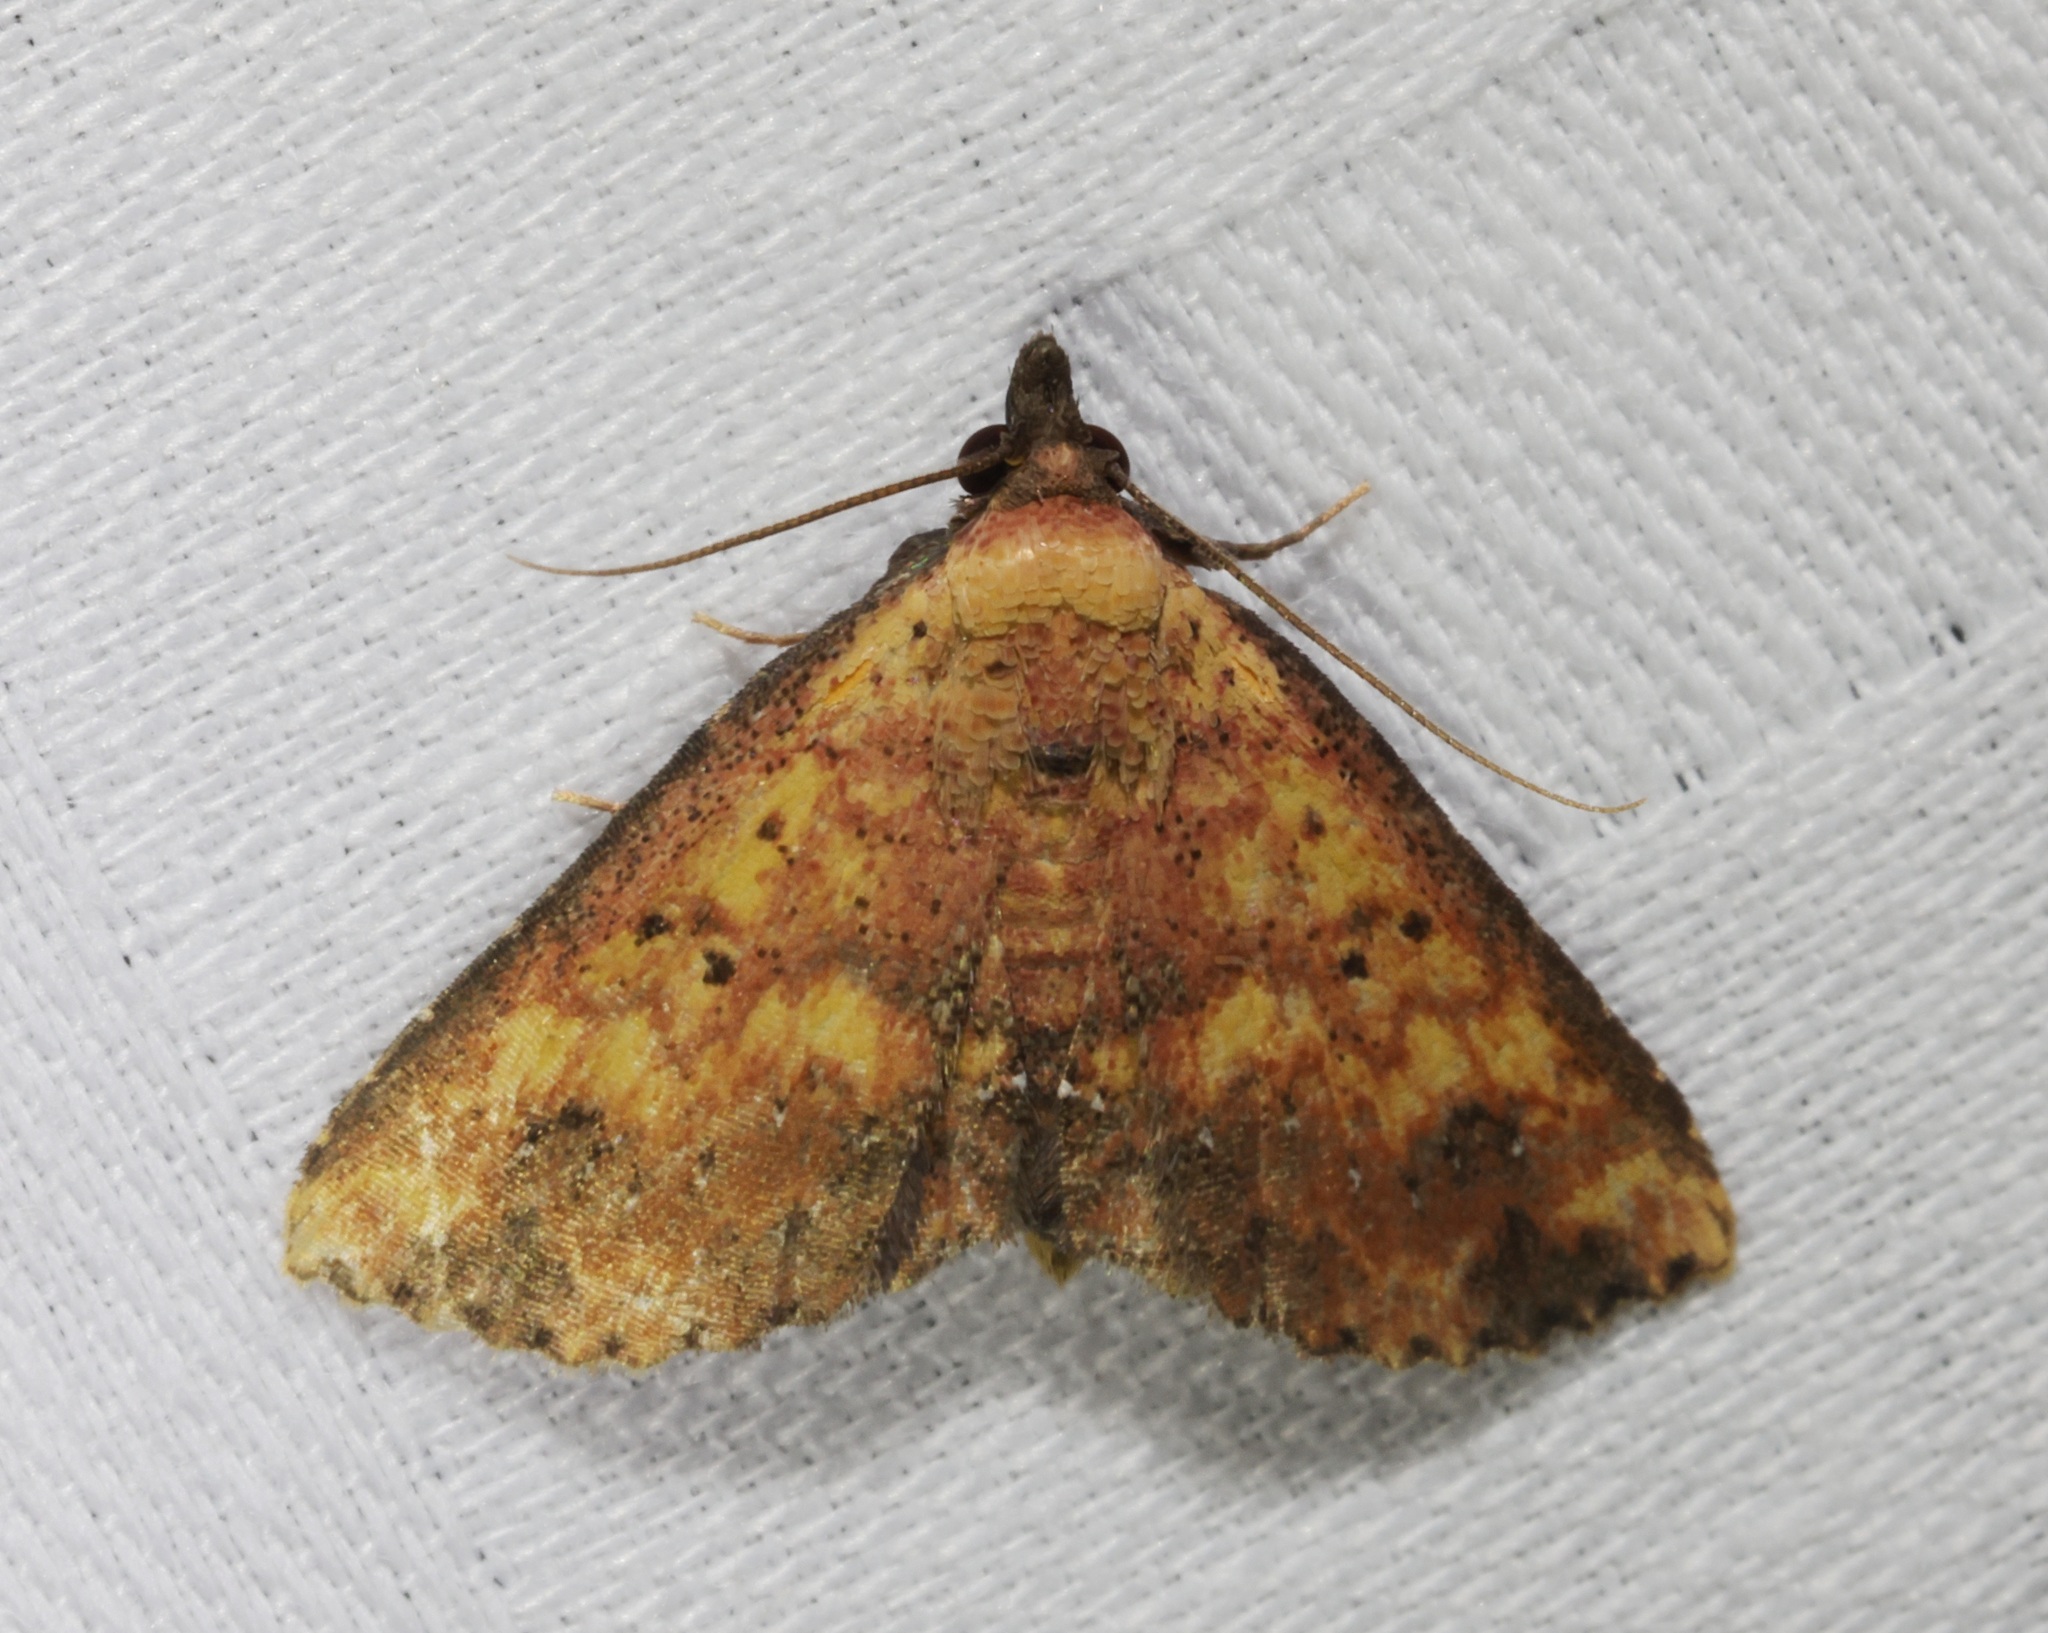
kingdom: Animalia
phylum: Arthropoda
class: Insecta
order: Lepidoptera
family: Noctuidae
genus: Cerynea
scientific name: Cerynea ustula
